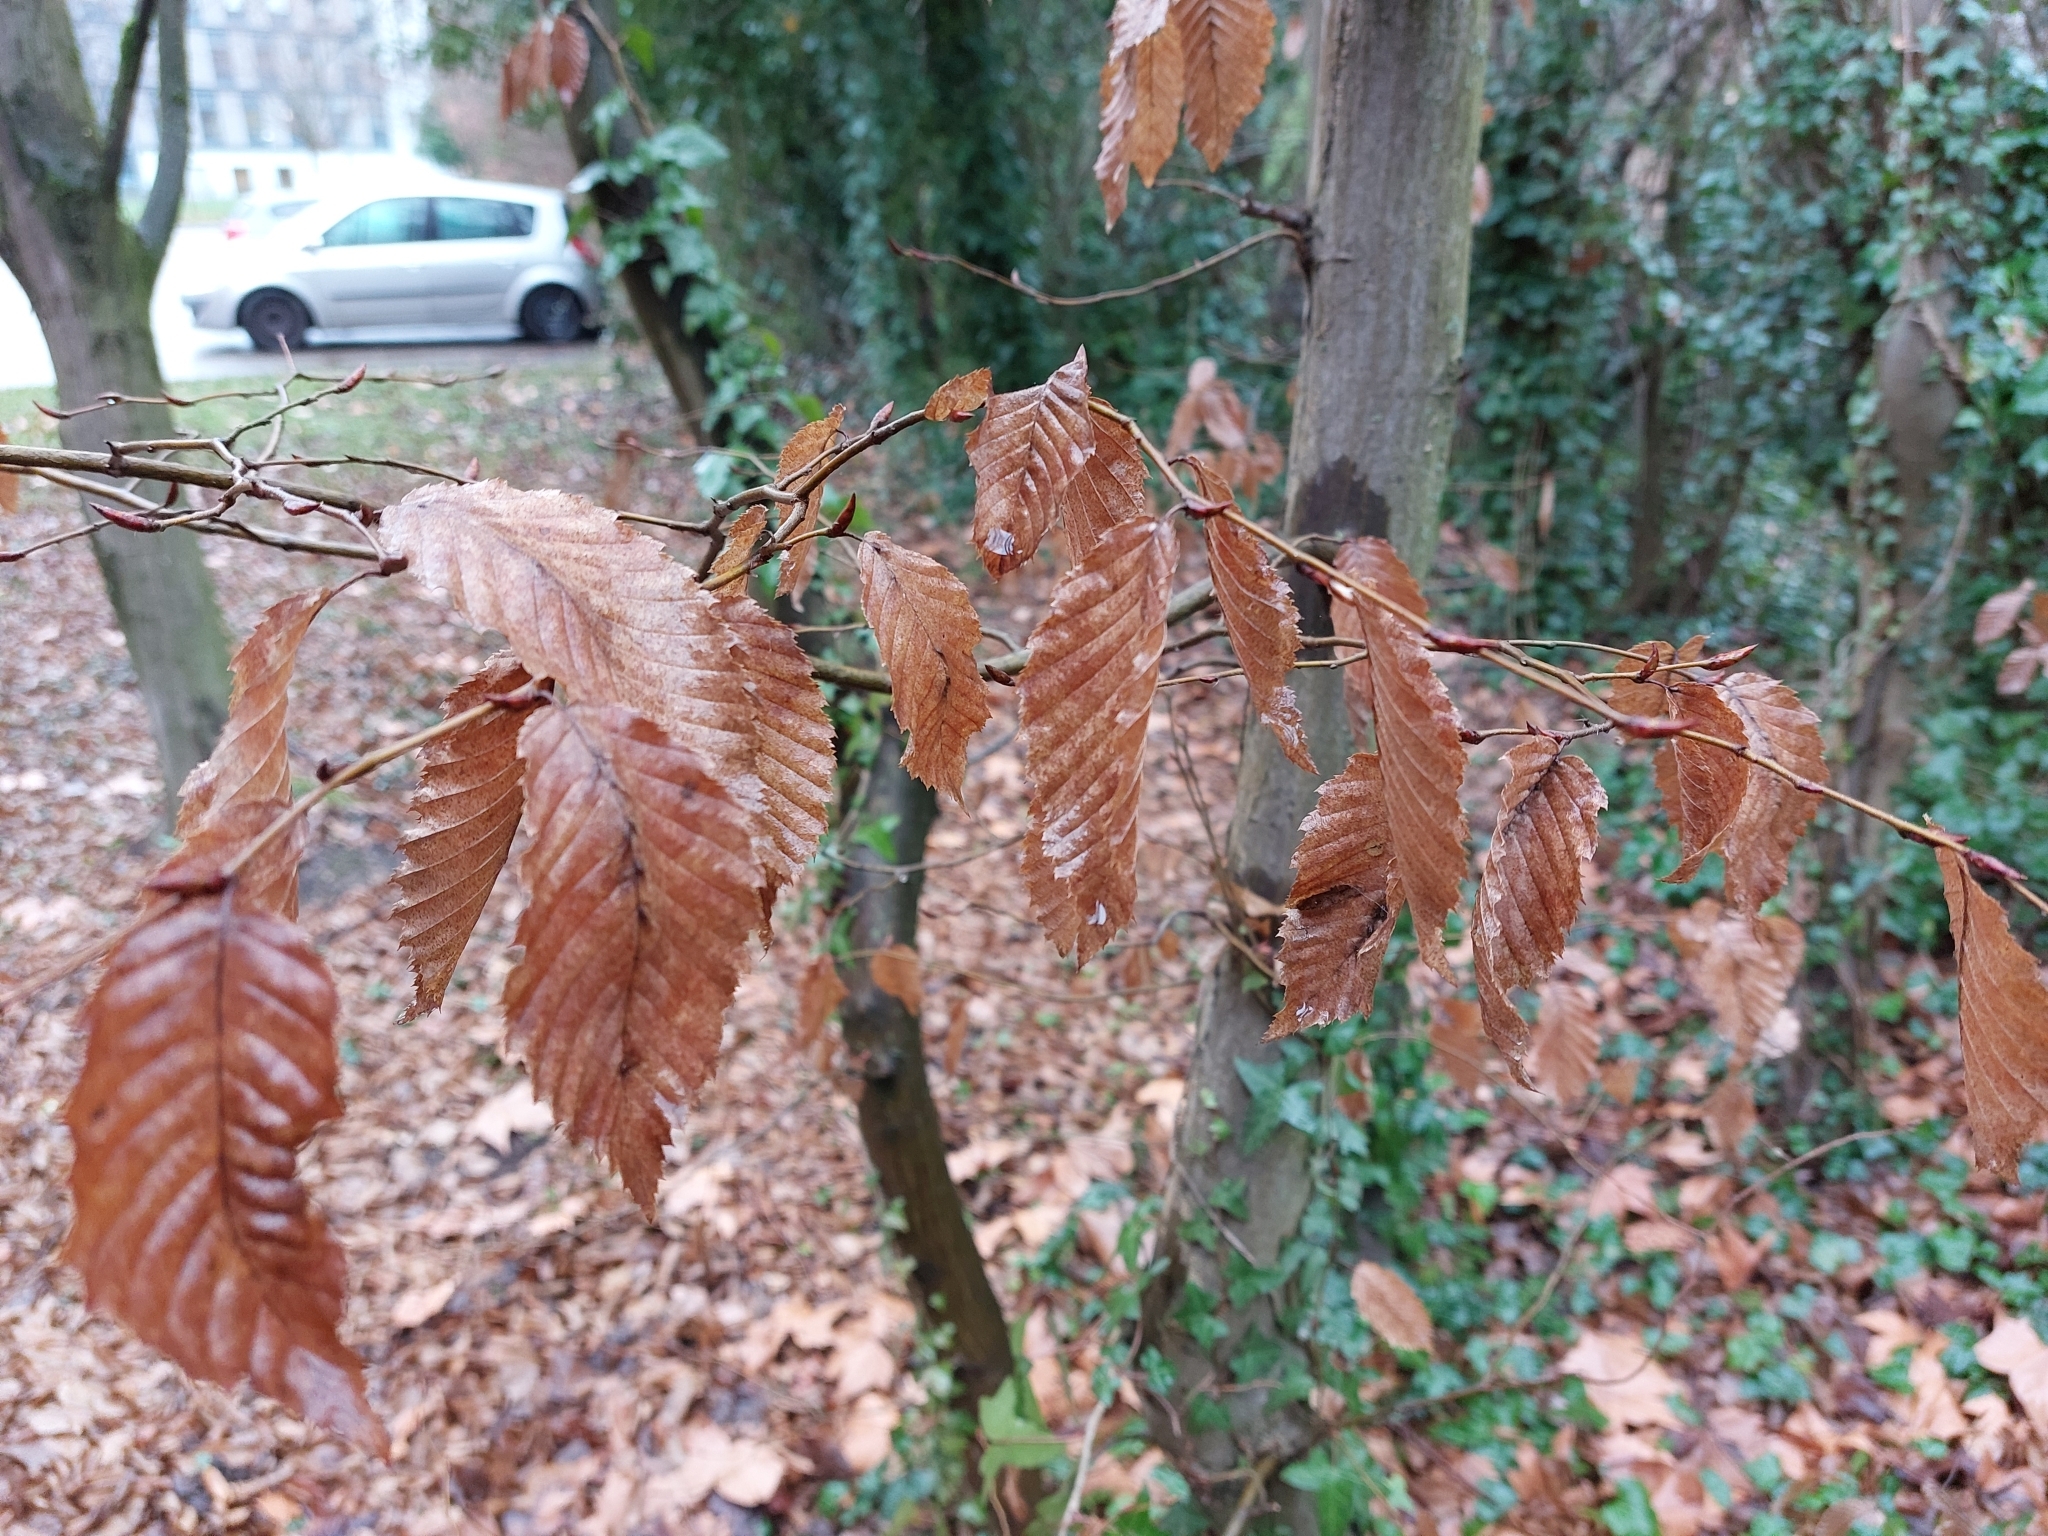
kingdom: Plantae
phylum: Tracheophyta
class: Magnoliopsida
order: Fagales
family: Betulaceae
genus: Carpinus
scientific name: Carpinus betulus
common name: Hornbeam
